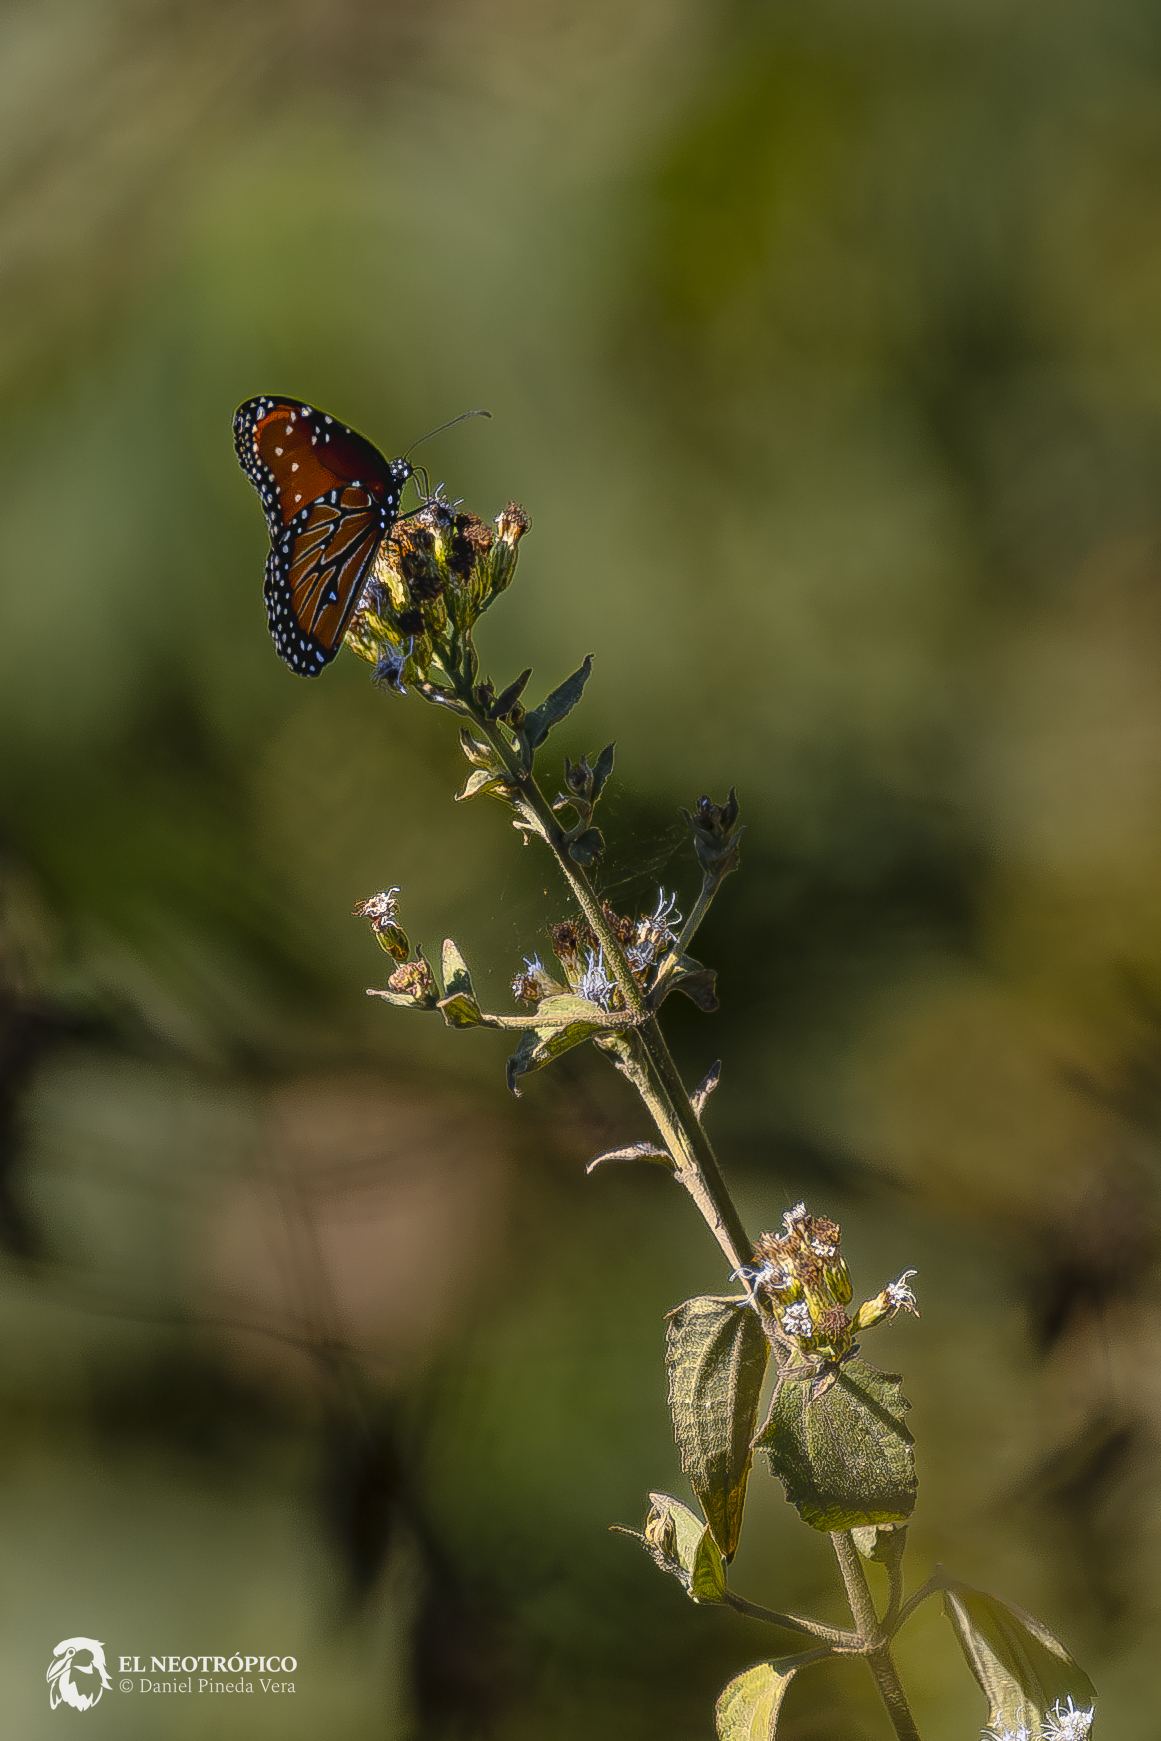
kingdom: Animalia
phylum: Arthropoda
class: Insecta
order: Lepidoptera
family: Nymphalidae
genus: Danaus
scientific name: Danaus gilippus
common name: Queen
